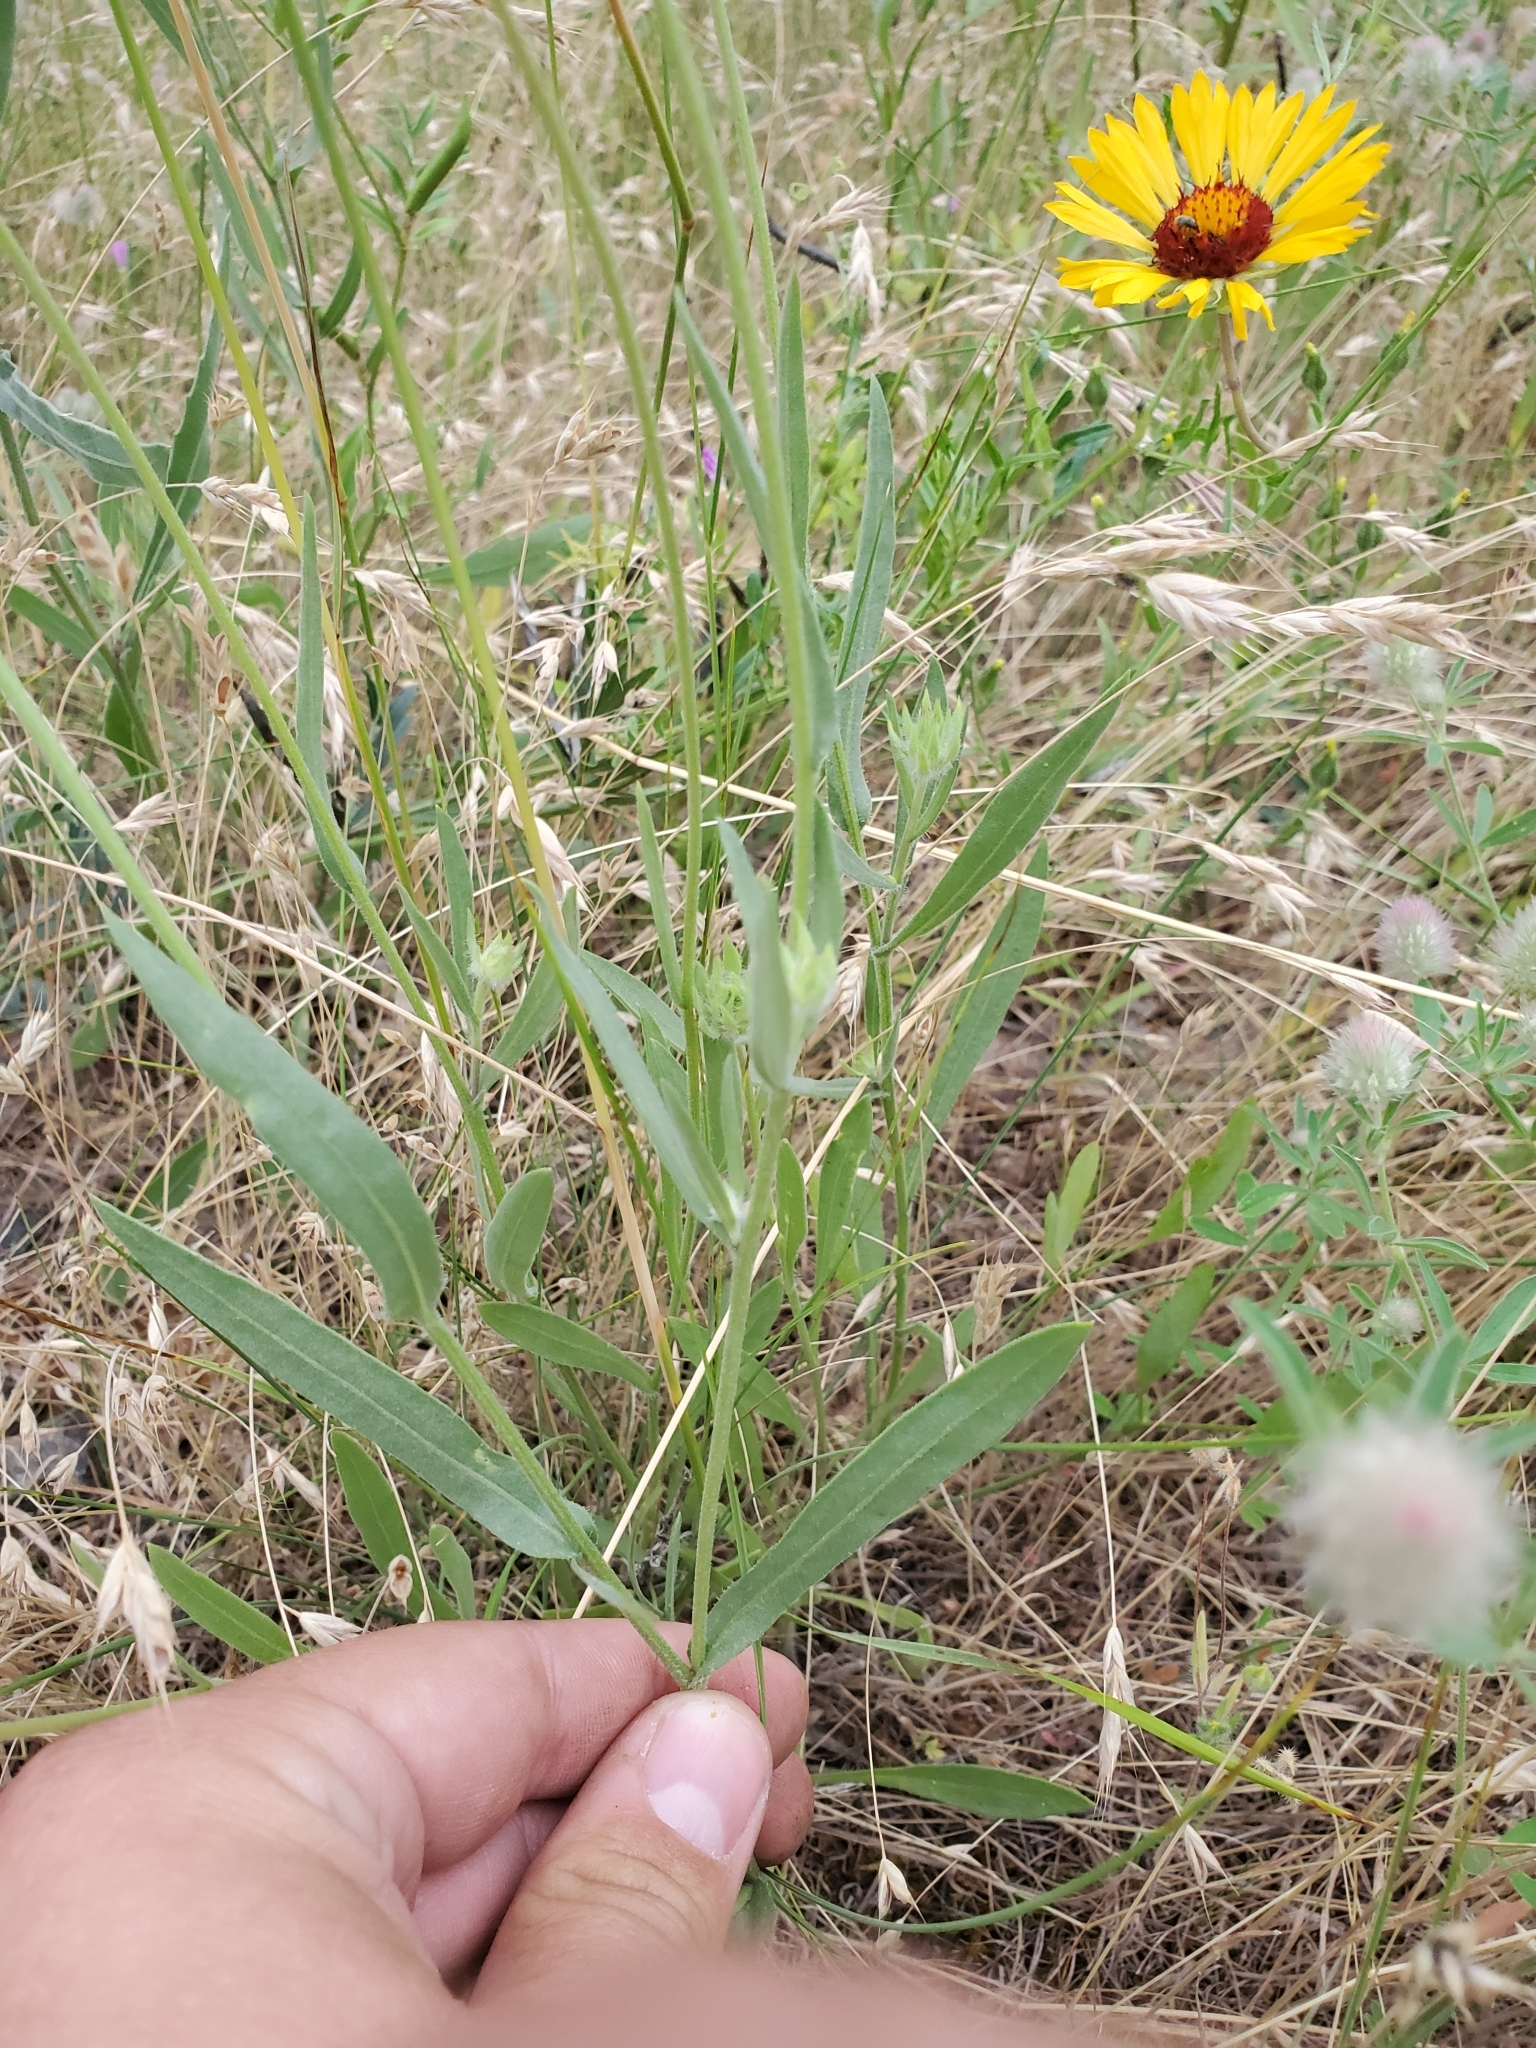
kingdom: Plantae
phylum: Tracheophyta
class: Magnoliopsida
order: Asterales
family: Asteraceae
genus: Gaillardia
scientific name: Gaillardia aristata
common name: Blanket-flower
